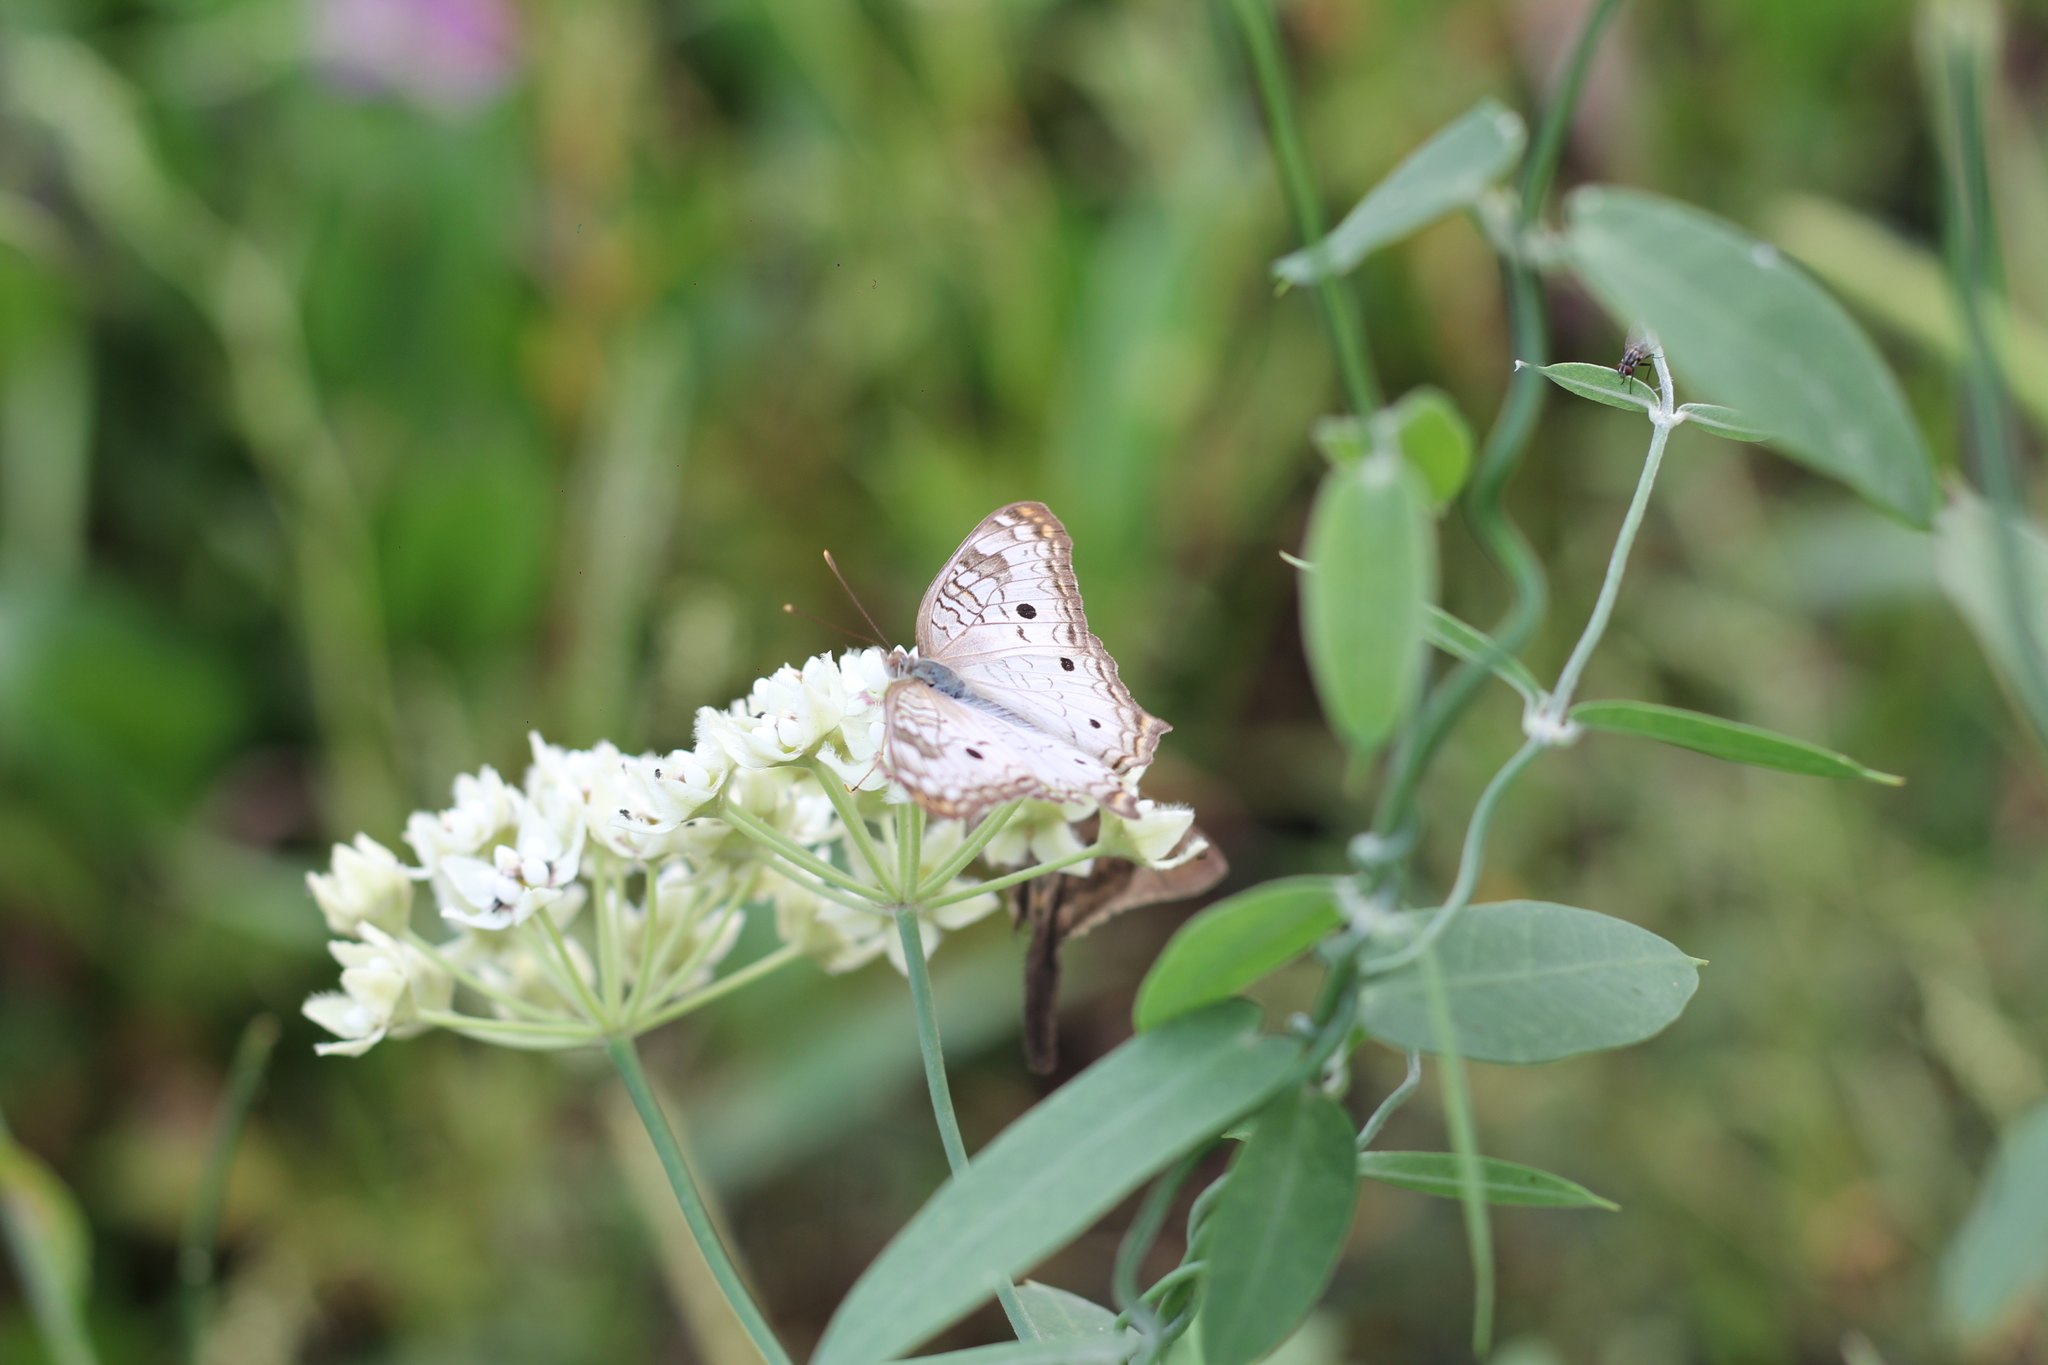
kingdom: Animalia
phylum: Arthropoda
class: Insecta
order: Lepidoptera
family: Nymphalidae
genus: Anartia
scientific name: Anartia jatrophae
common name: White peacock
